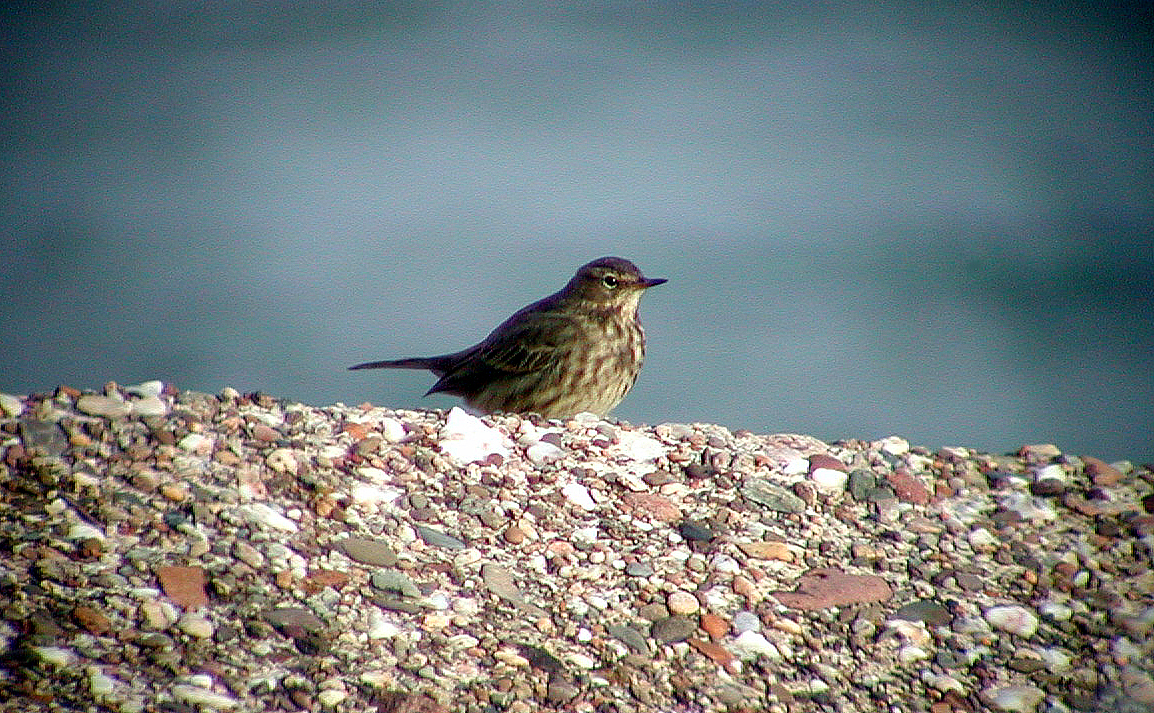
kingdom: Animalia
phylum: Chordata
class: Aves
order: Passeriformes
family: Motacillidae
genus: Anthus
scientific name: Anthus petrosus
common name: Eurasian rock pipit
